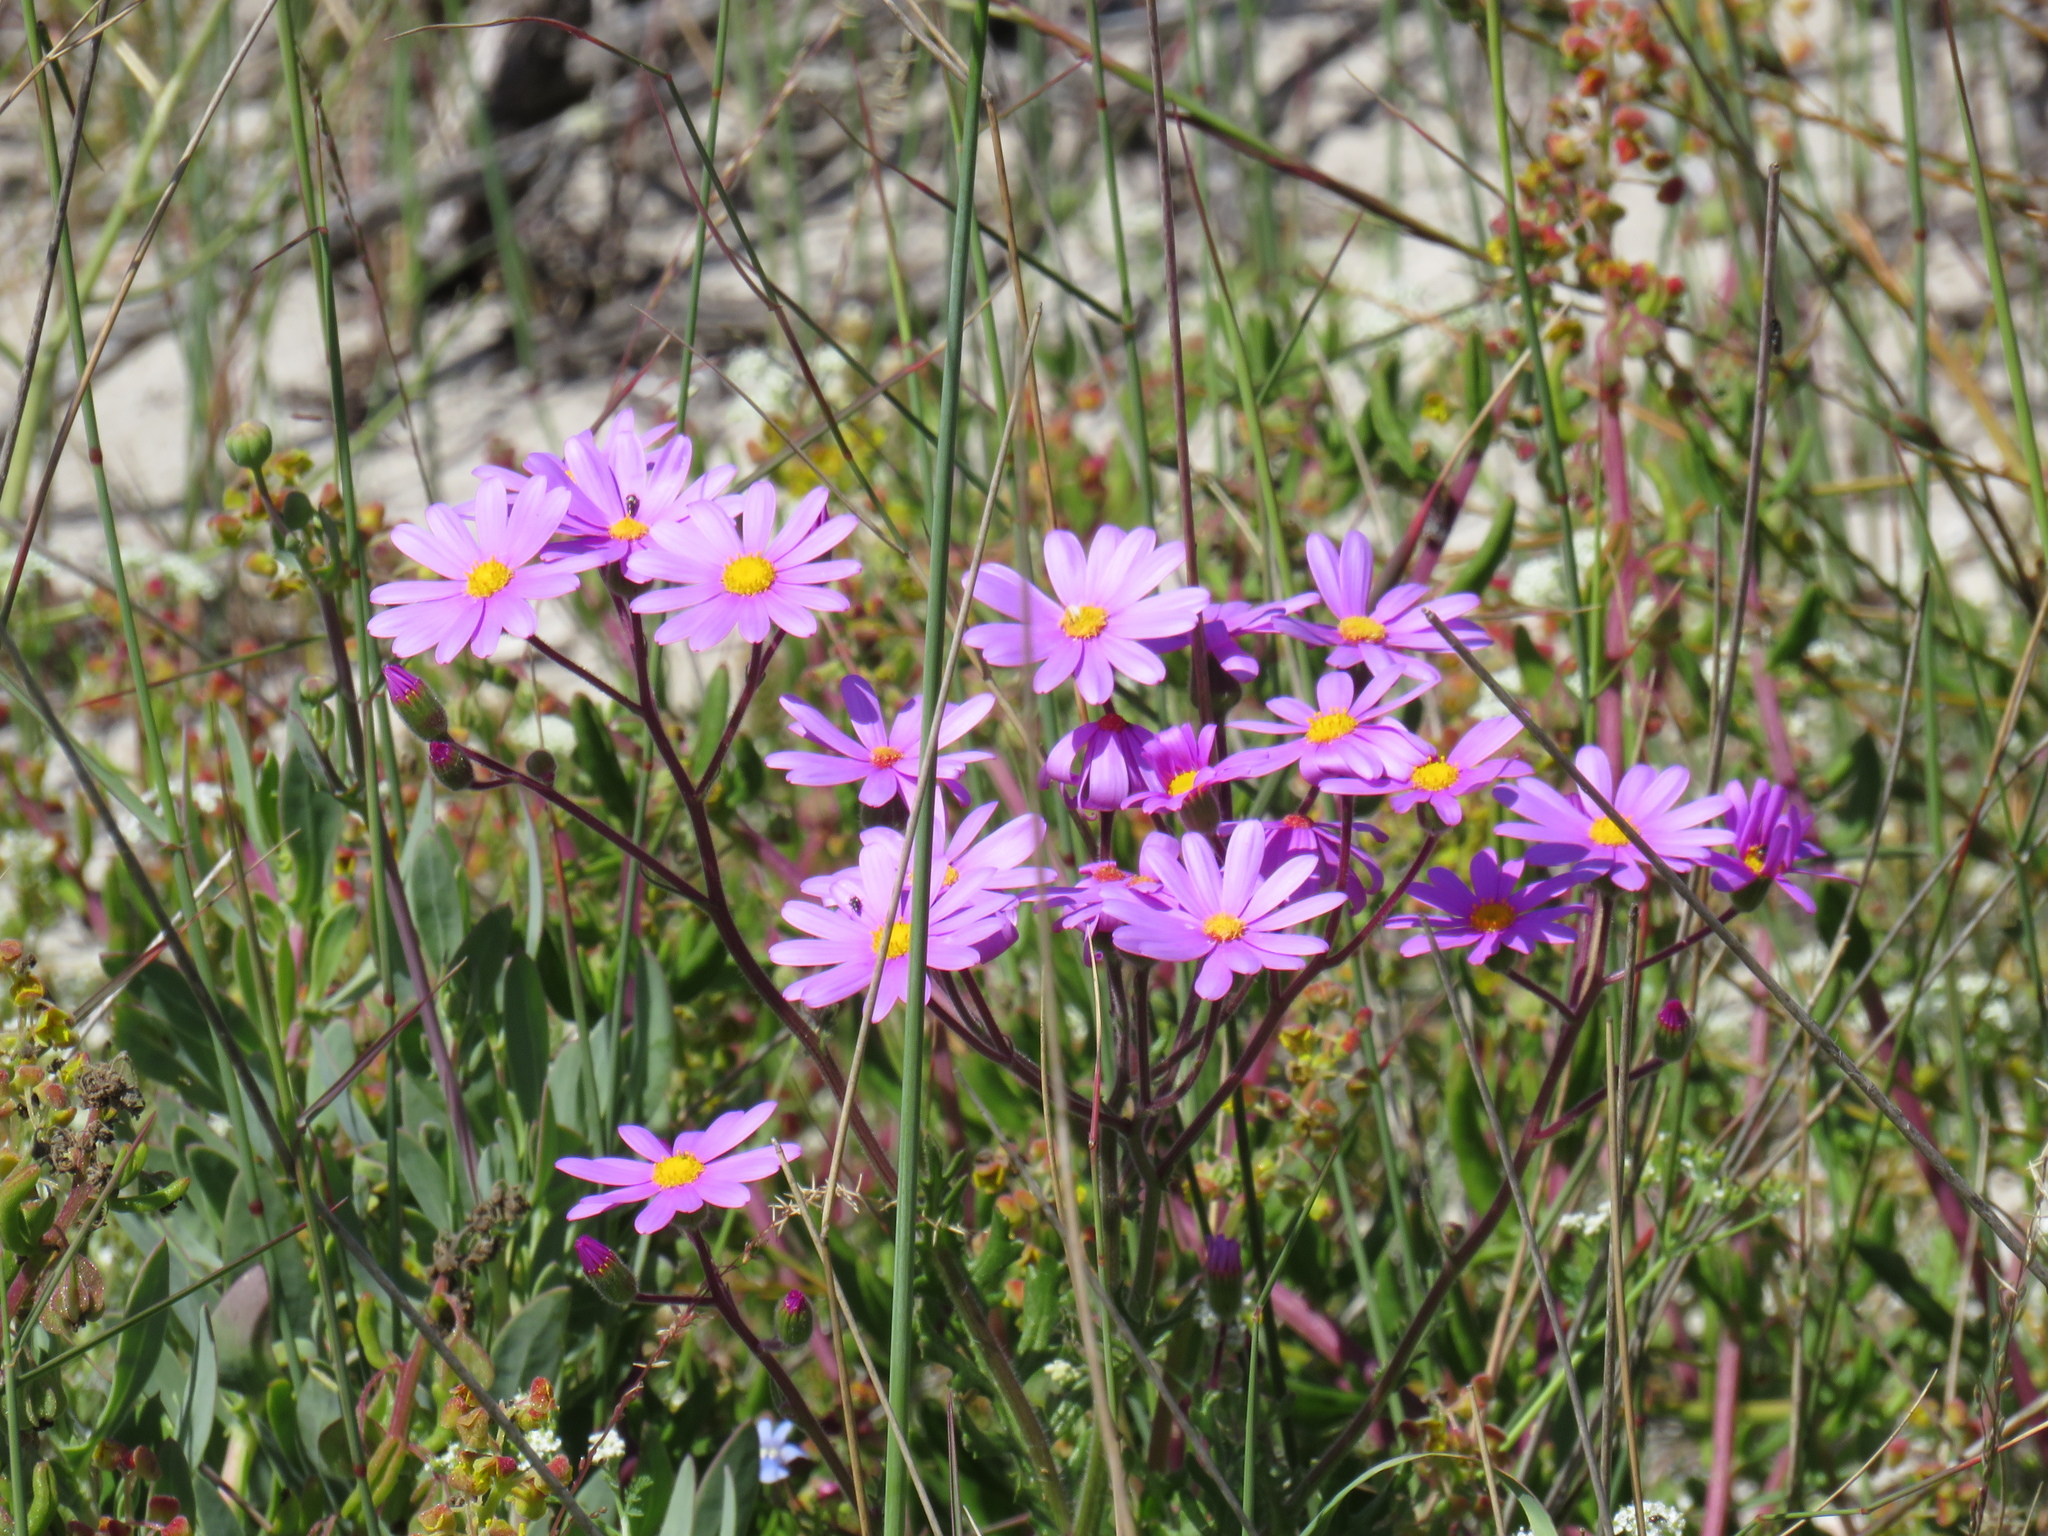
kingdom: Plantae
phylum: Tracheophyta
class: Magnoliopsida
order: Asterales
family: Asteraceae
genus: Senecio
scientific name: Senecio arenarius
